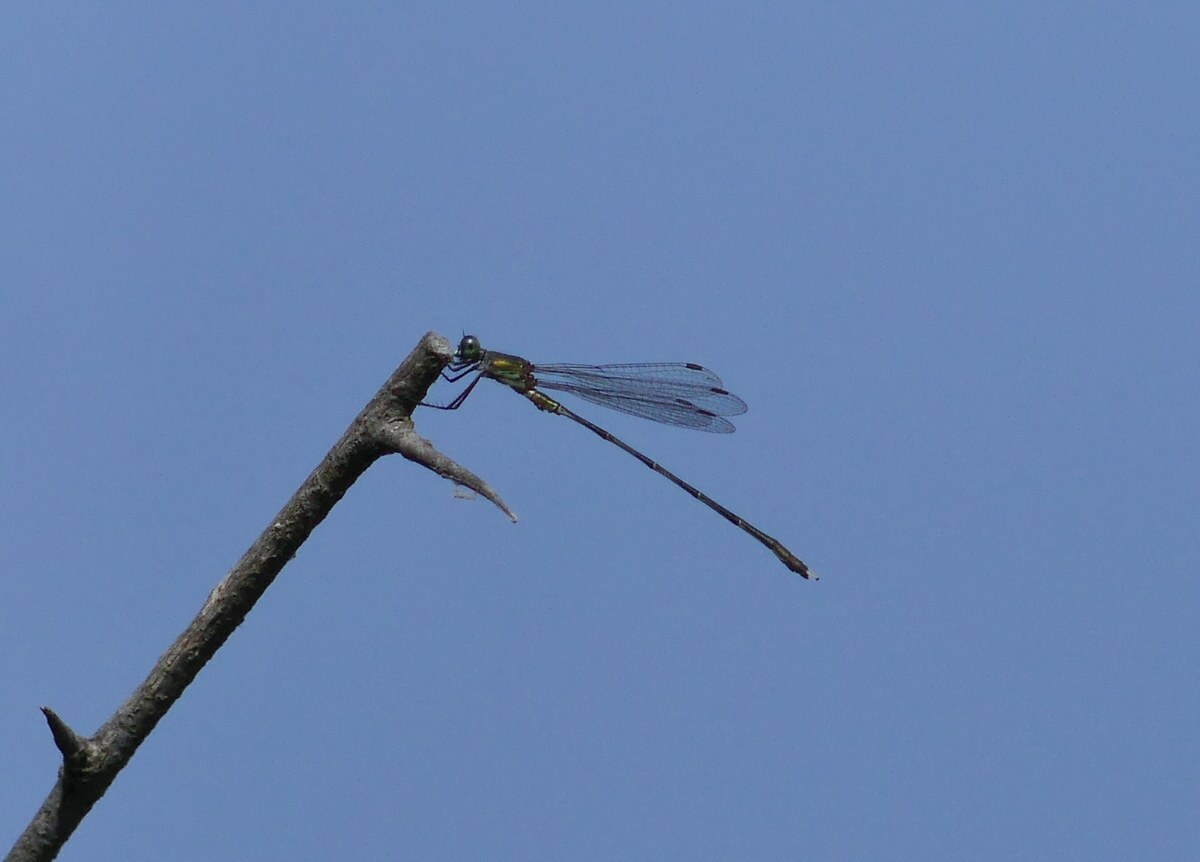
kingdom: Animalia
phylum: Arthropoda
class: Insecta
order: Odonata
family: Lestidae
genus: Chalcolestes
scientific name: Chalcolestes parvidens
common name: Eastern willow spreadwing
